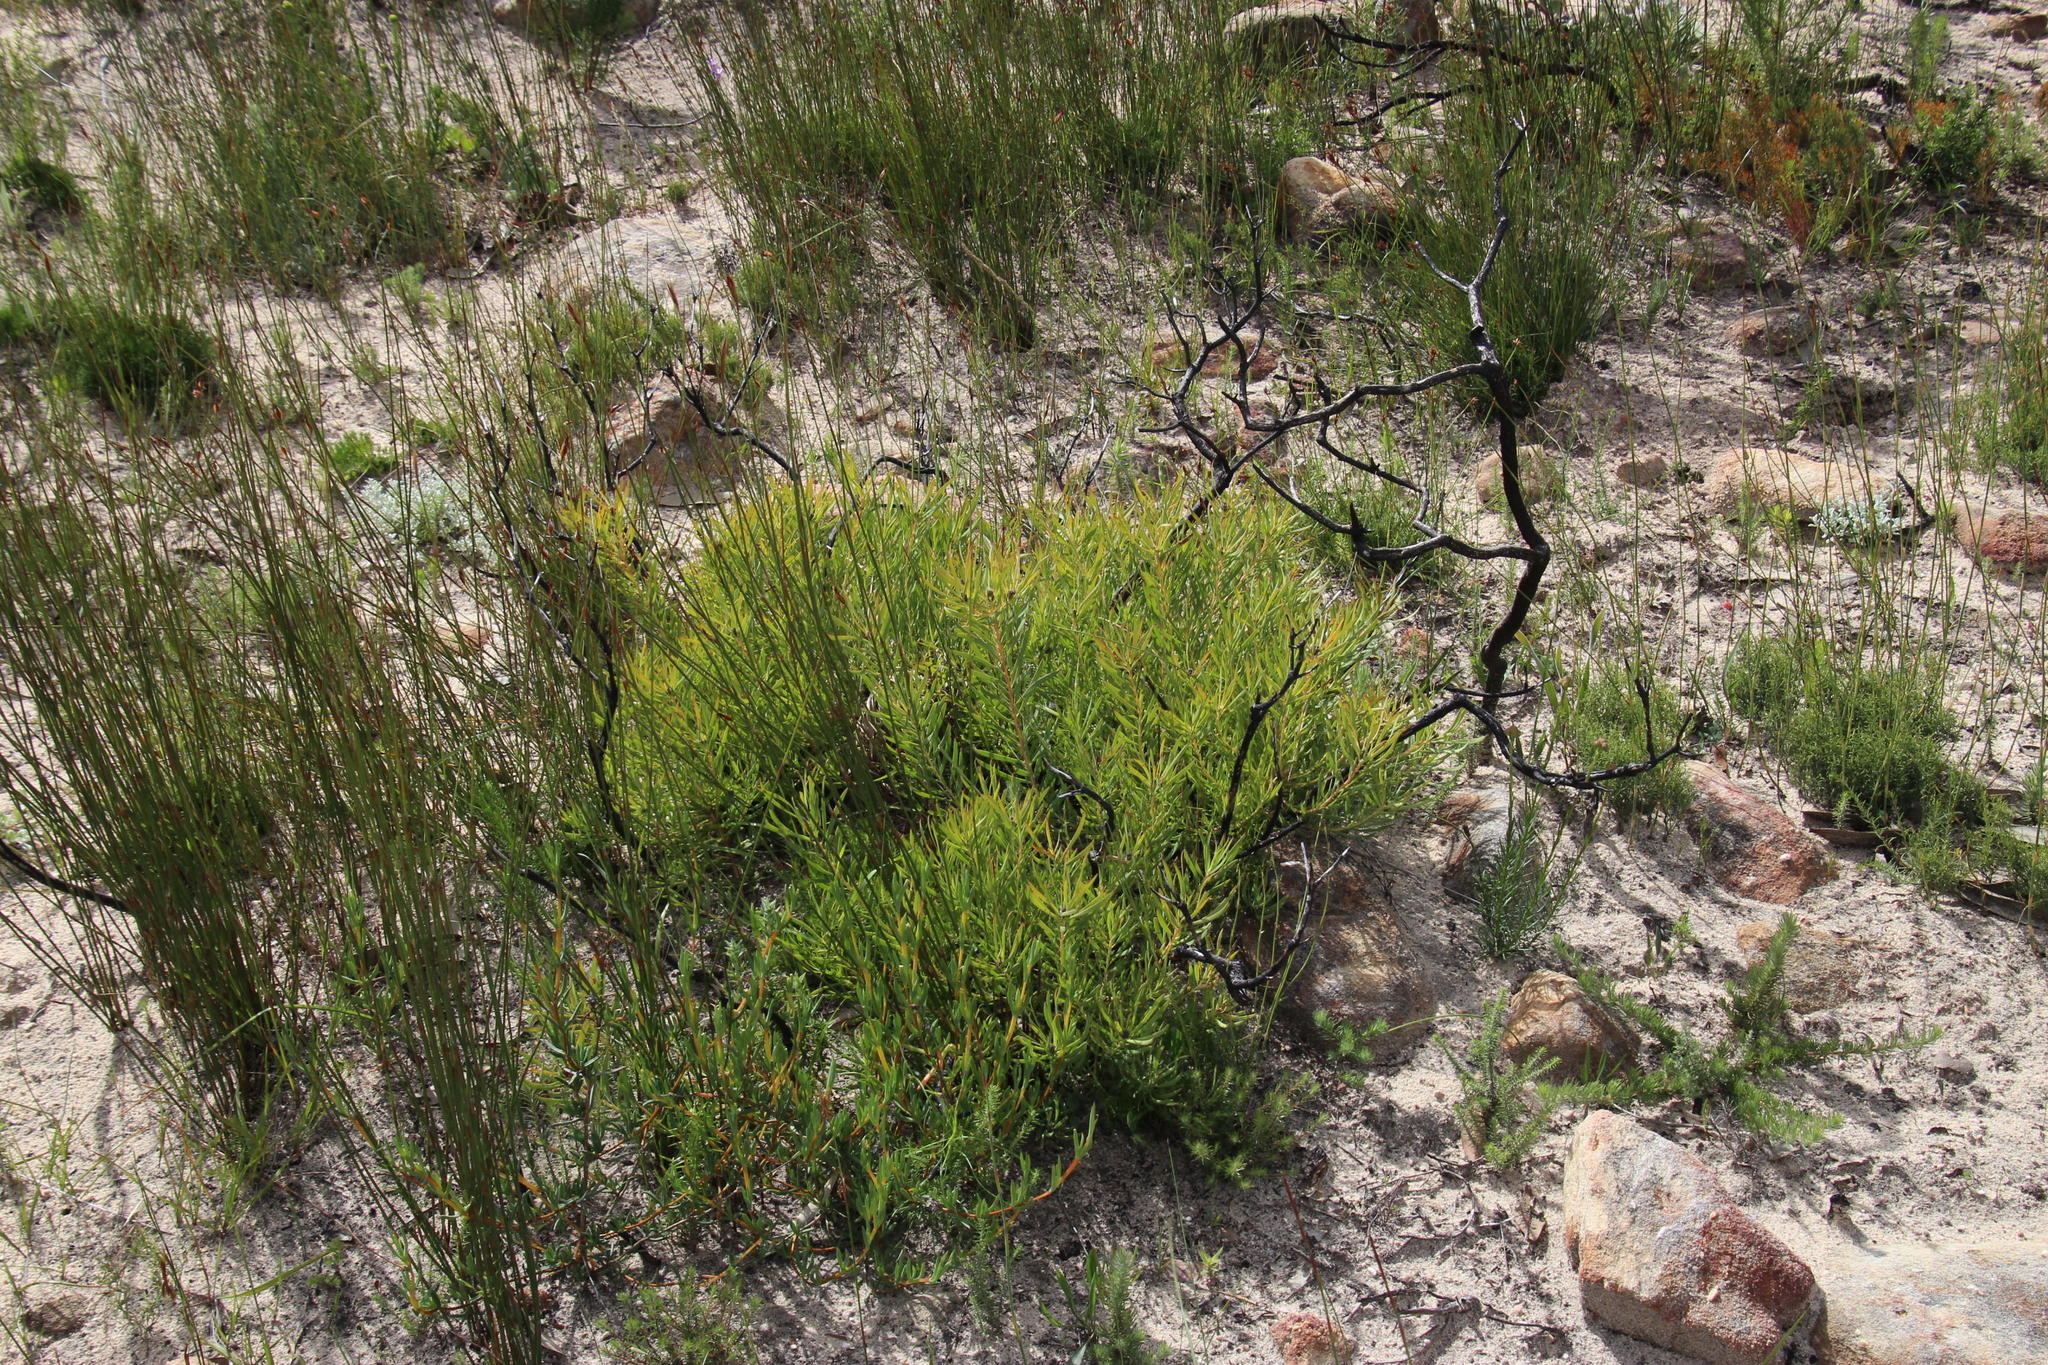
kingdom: Plantae
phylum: Tracheophyta
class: Magnoliopsida
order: Proteales
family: Proteaceae
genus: Leucadendron
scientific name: Leucadendron salignum
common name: Common sunshine conebush
